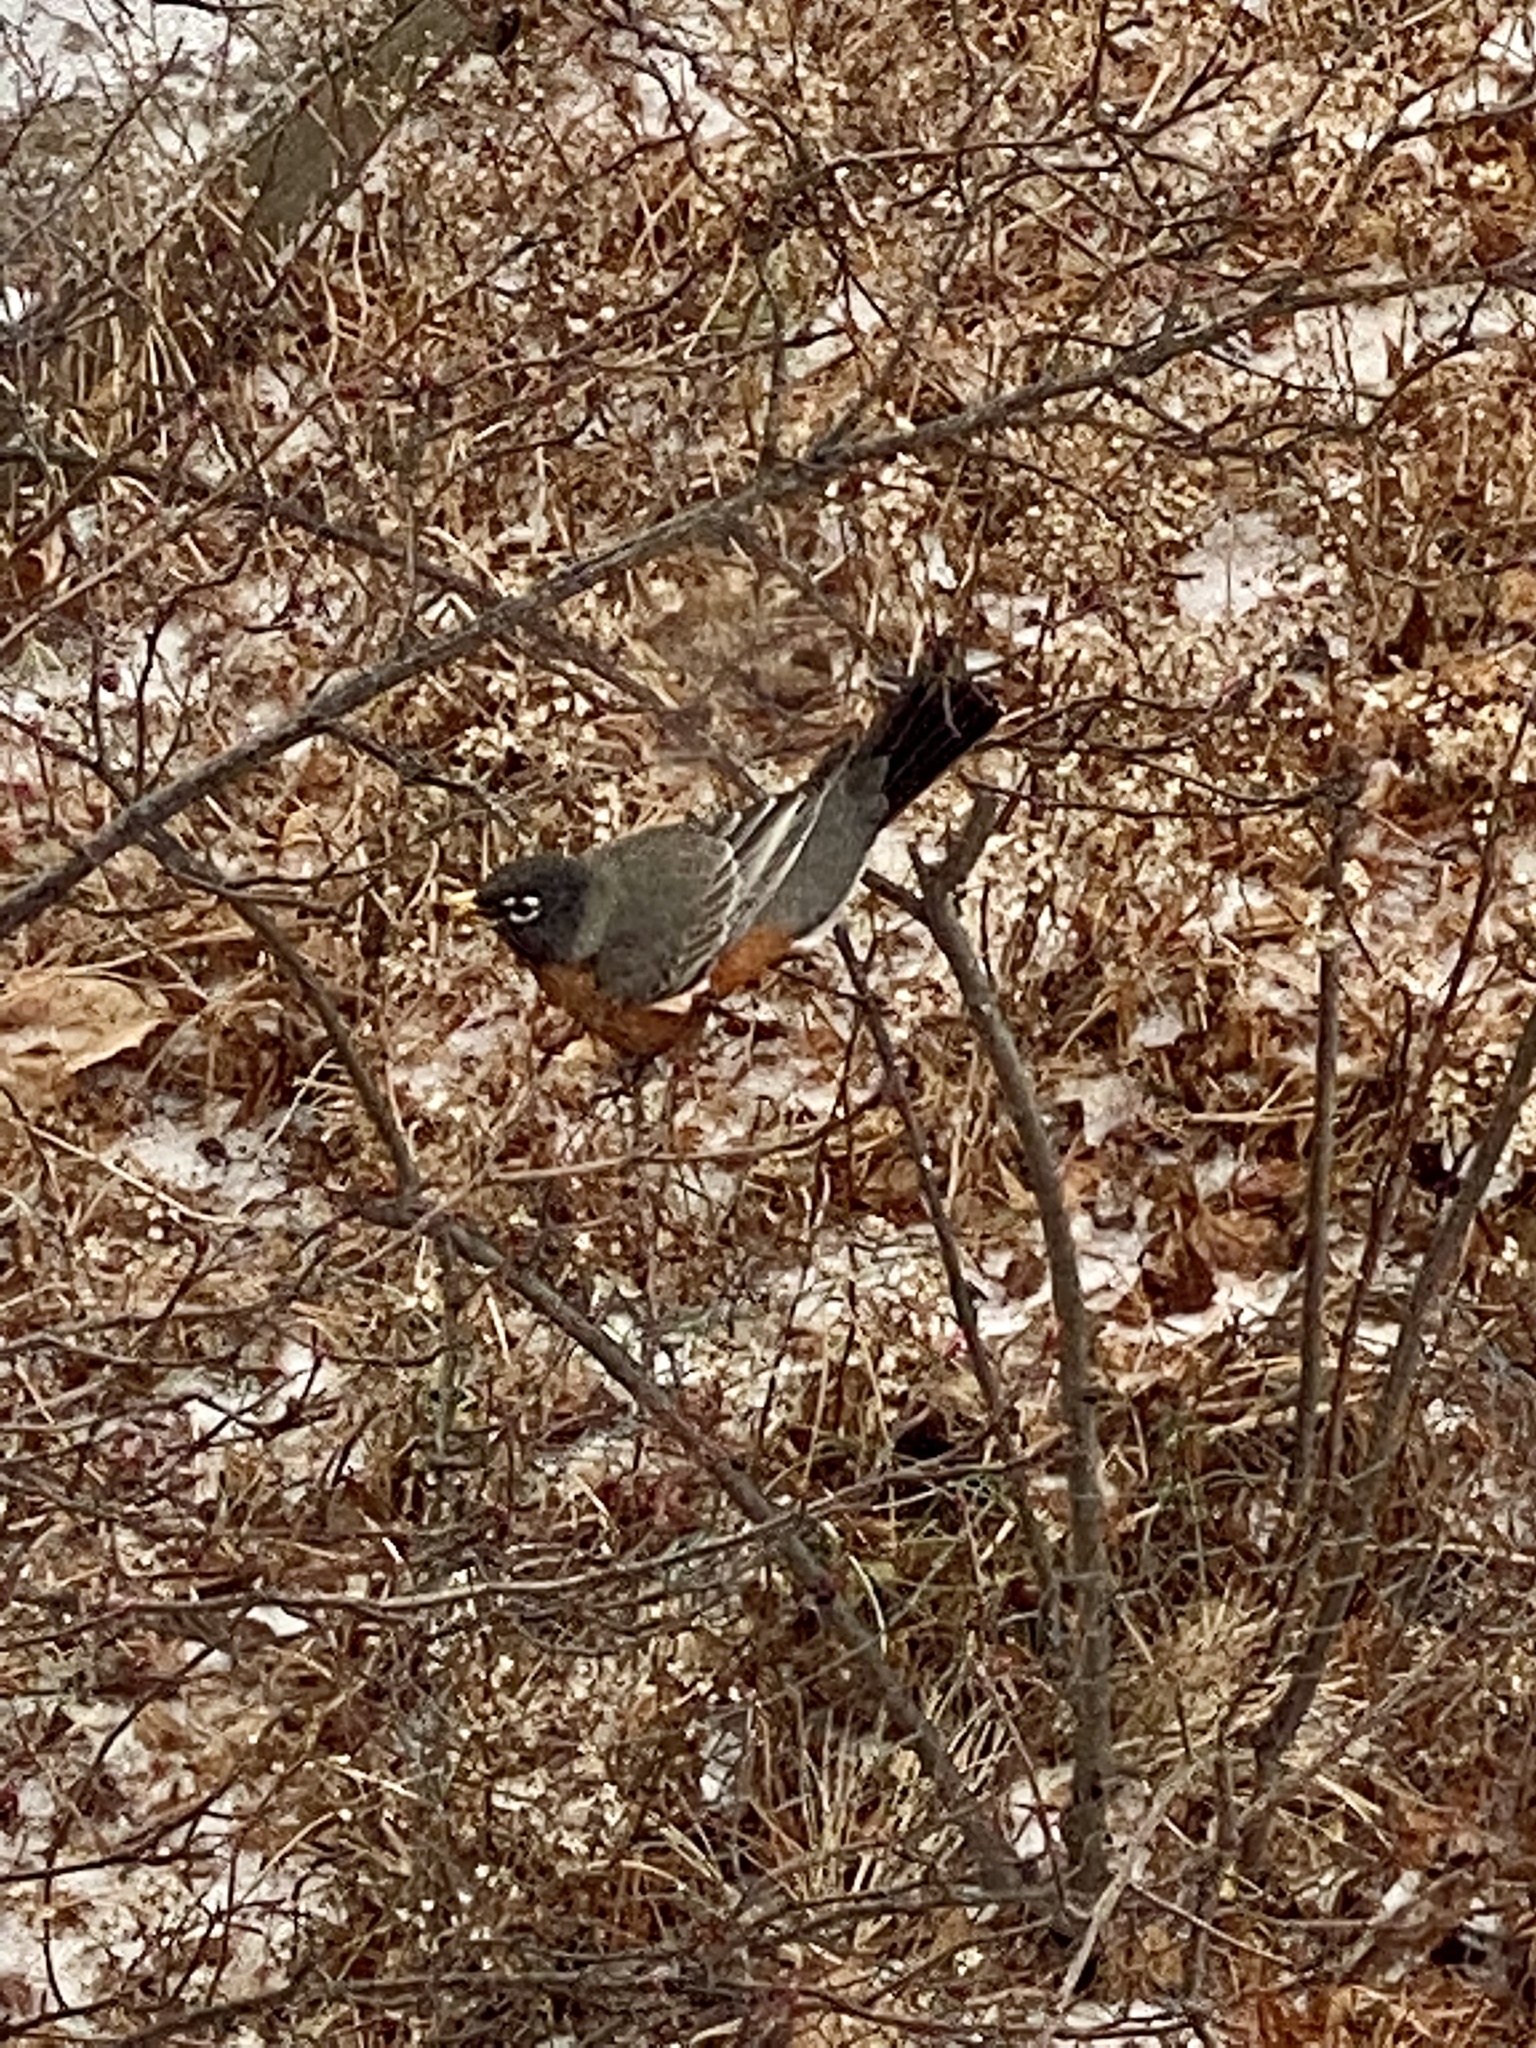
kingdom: Animalia
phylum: Chordata
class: Aves
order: Passeriformes
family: Turdidae
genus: Turdus
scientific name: Turdus migratorius
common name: American robin
